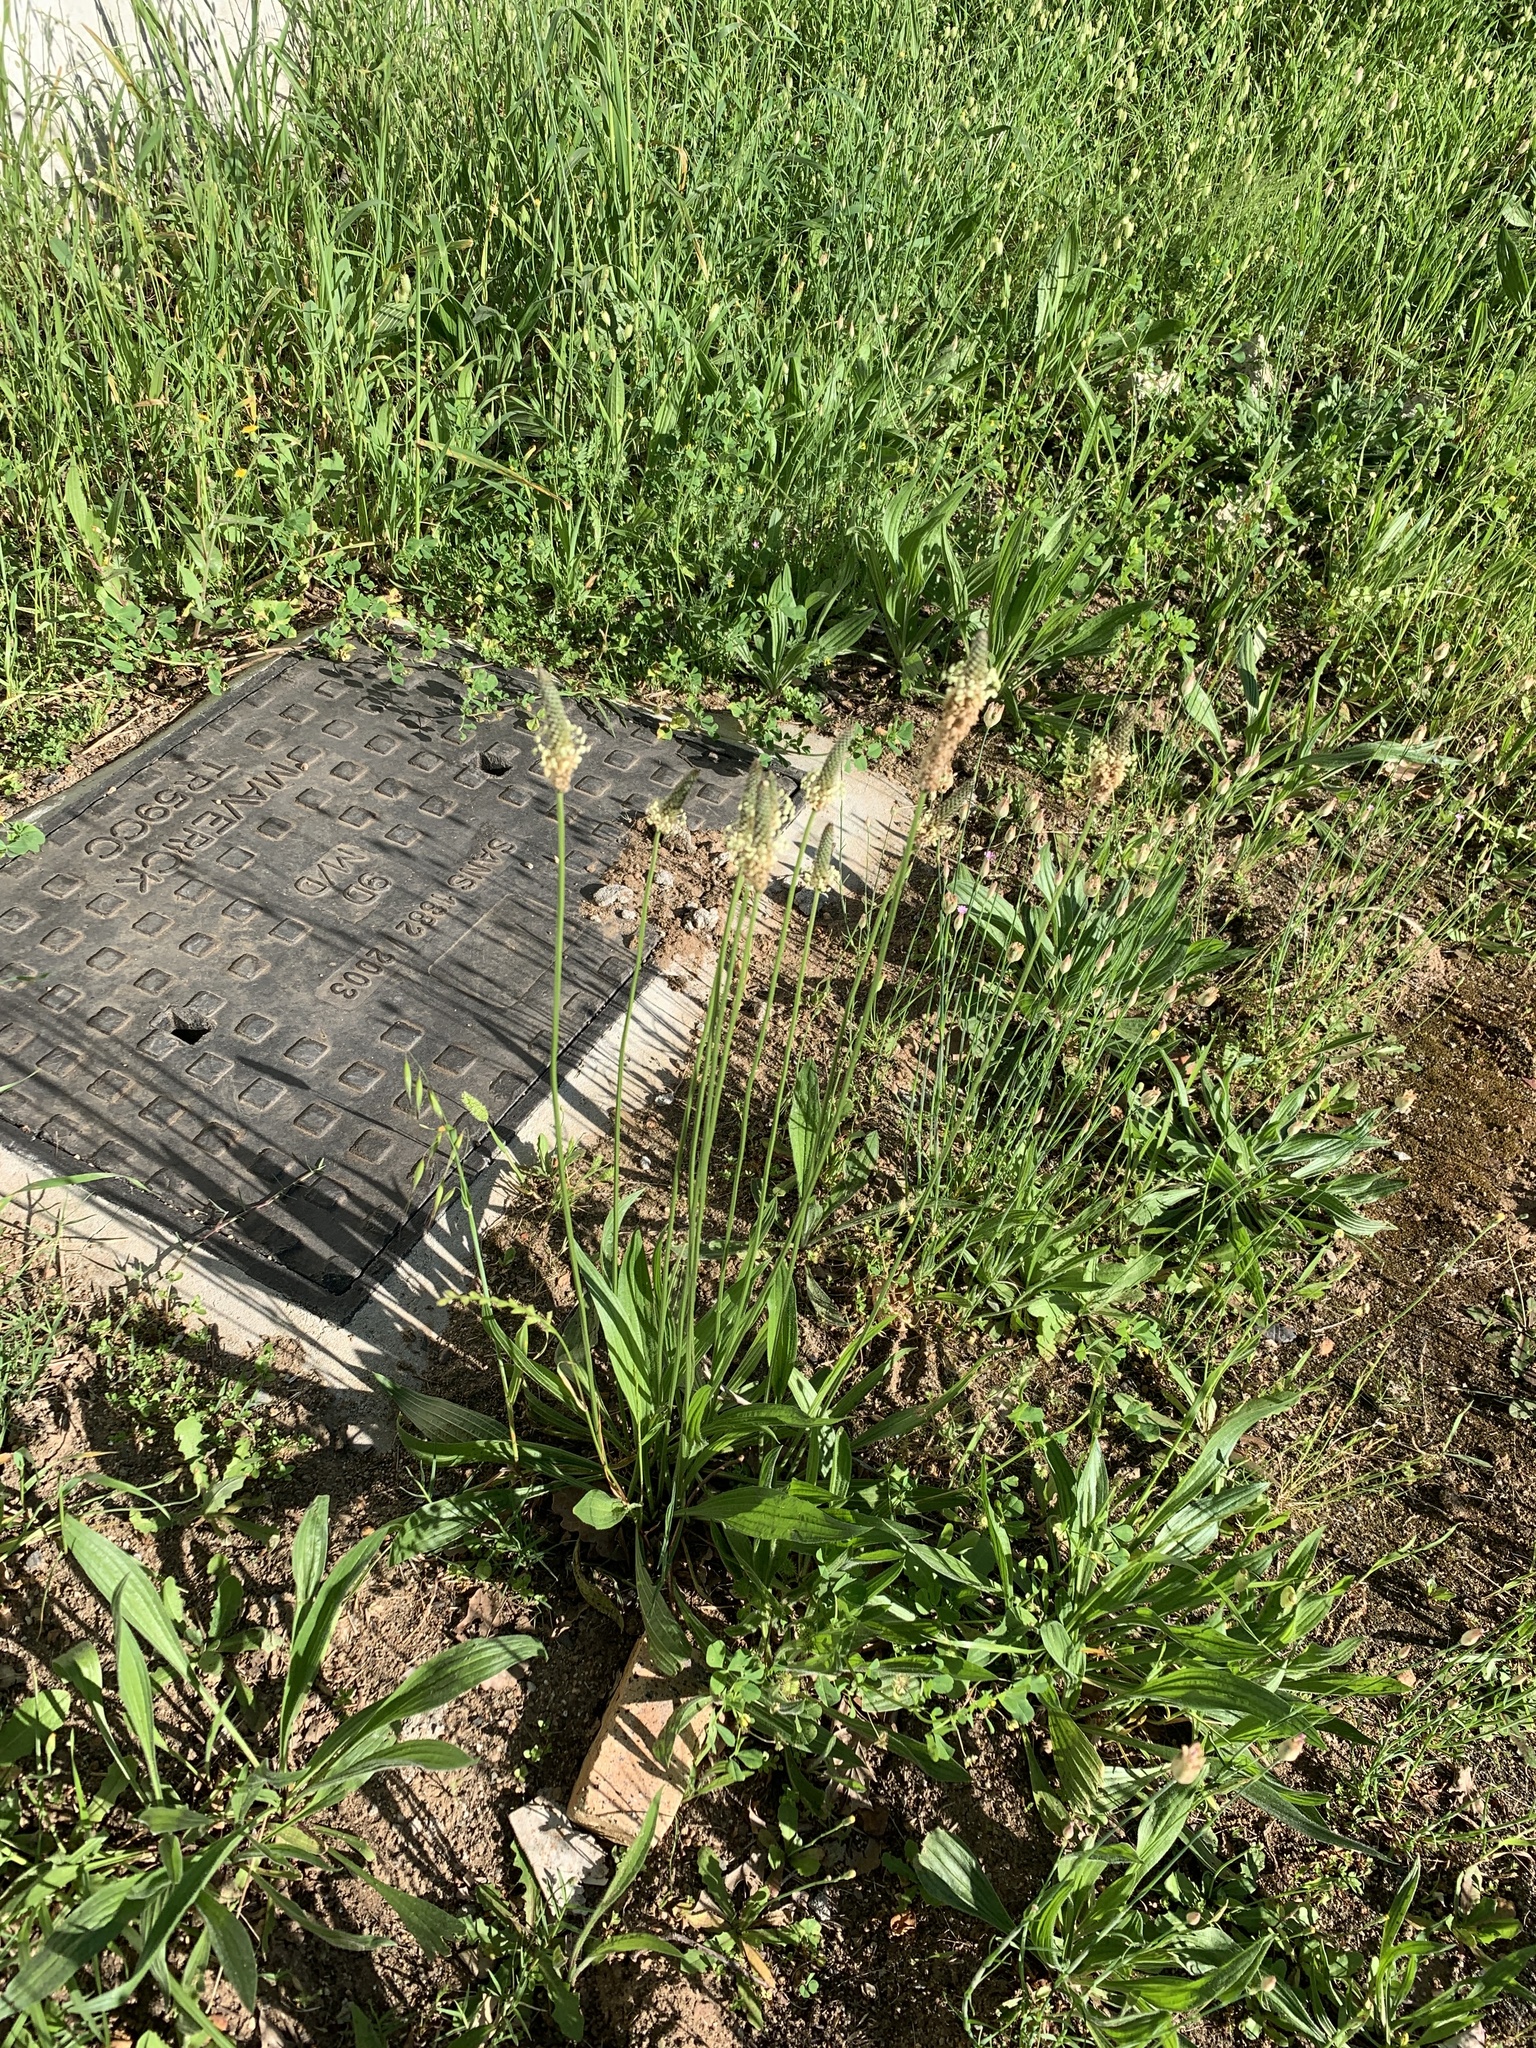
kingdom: Plantae
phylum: Tracheophyta
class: Magnoliopsida
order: Lamiales
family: Plantaginaceae
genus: Plantago
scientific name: Plantago lanceolata
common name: Ribwort plantain
